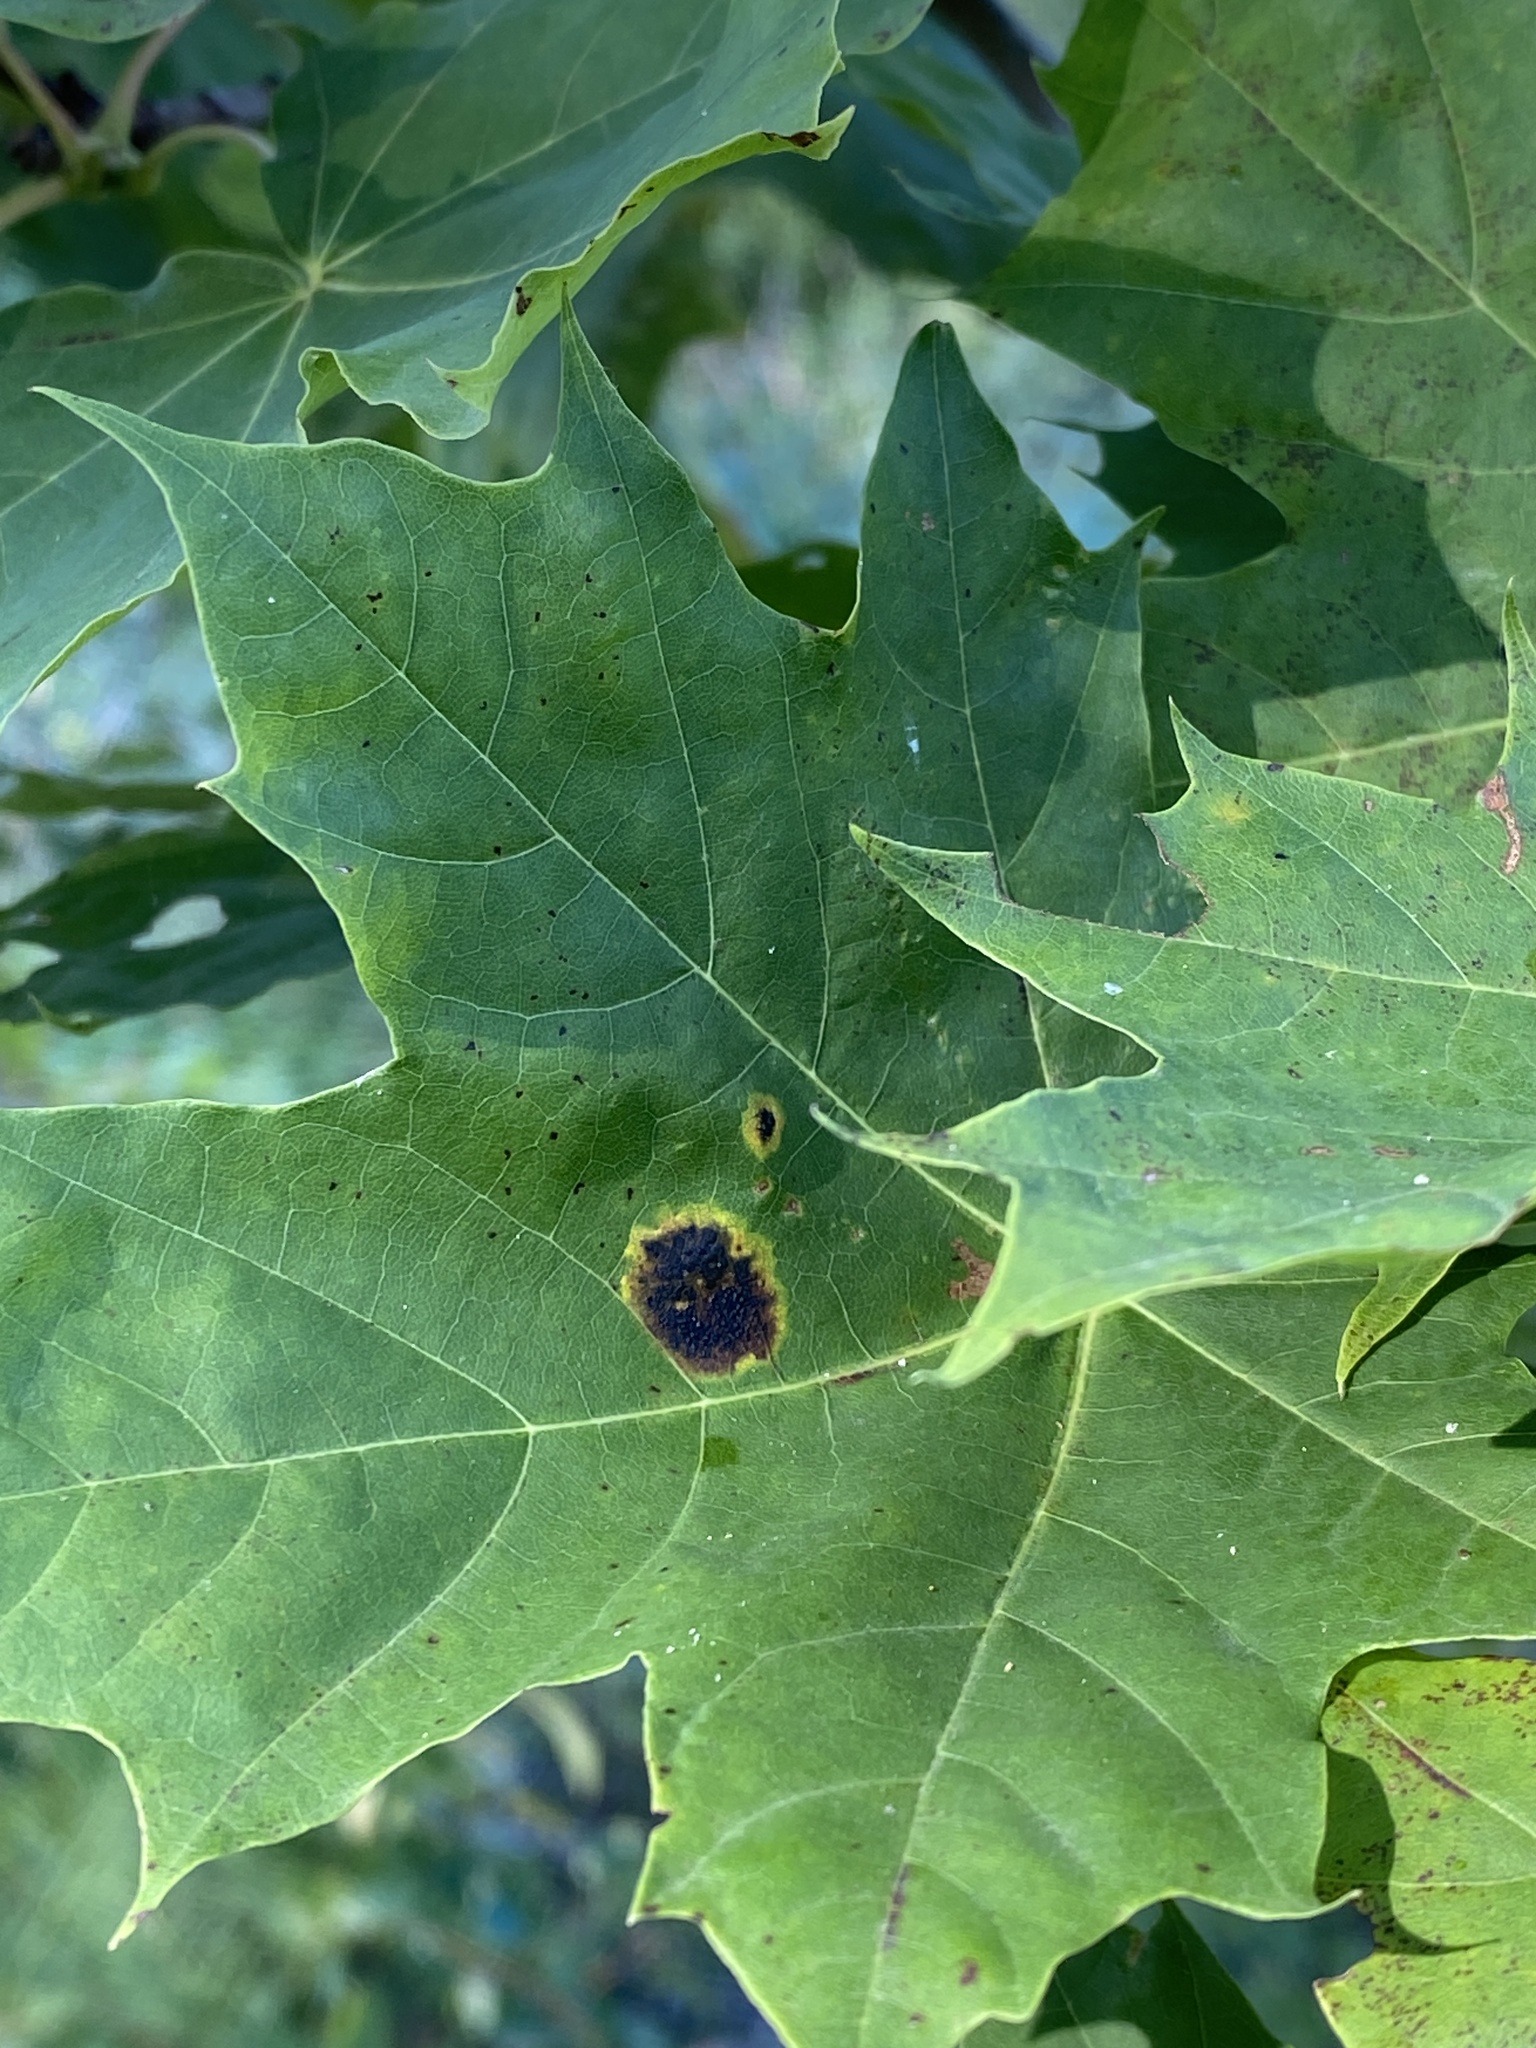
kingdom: Fungi
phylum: Ascomycota
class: Leotiomycetes
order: Rhytismatales
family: Rhytismataceae
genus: Rhytisma
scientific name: Rhytisma acerinum
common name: European tar spot
